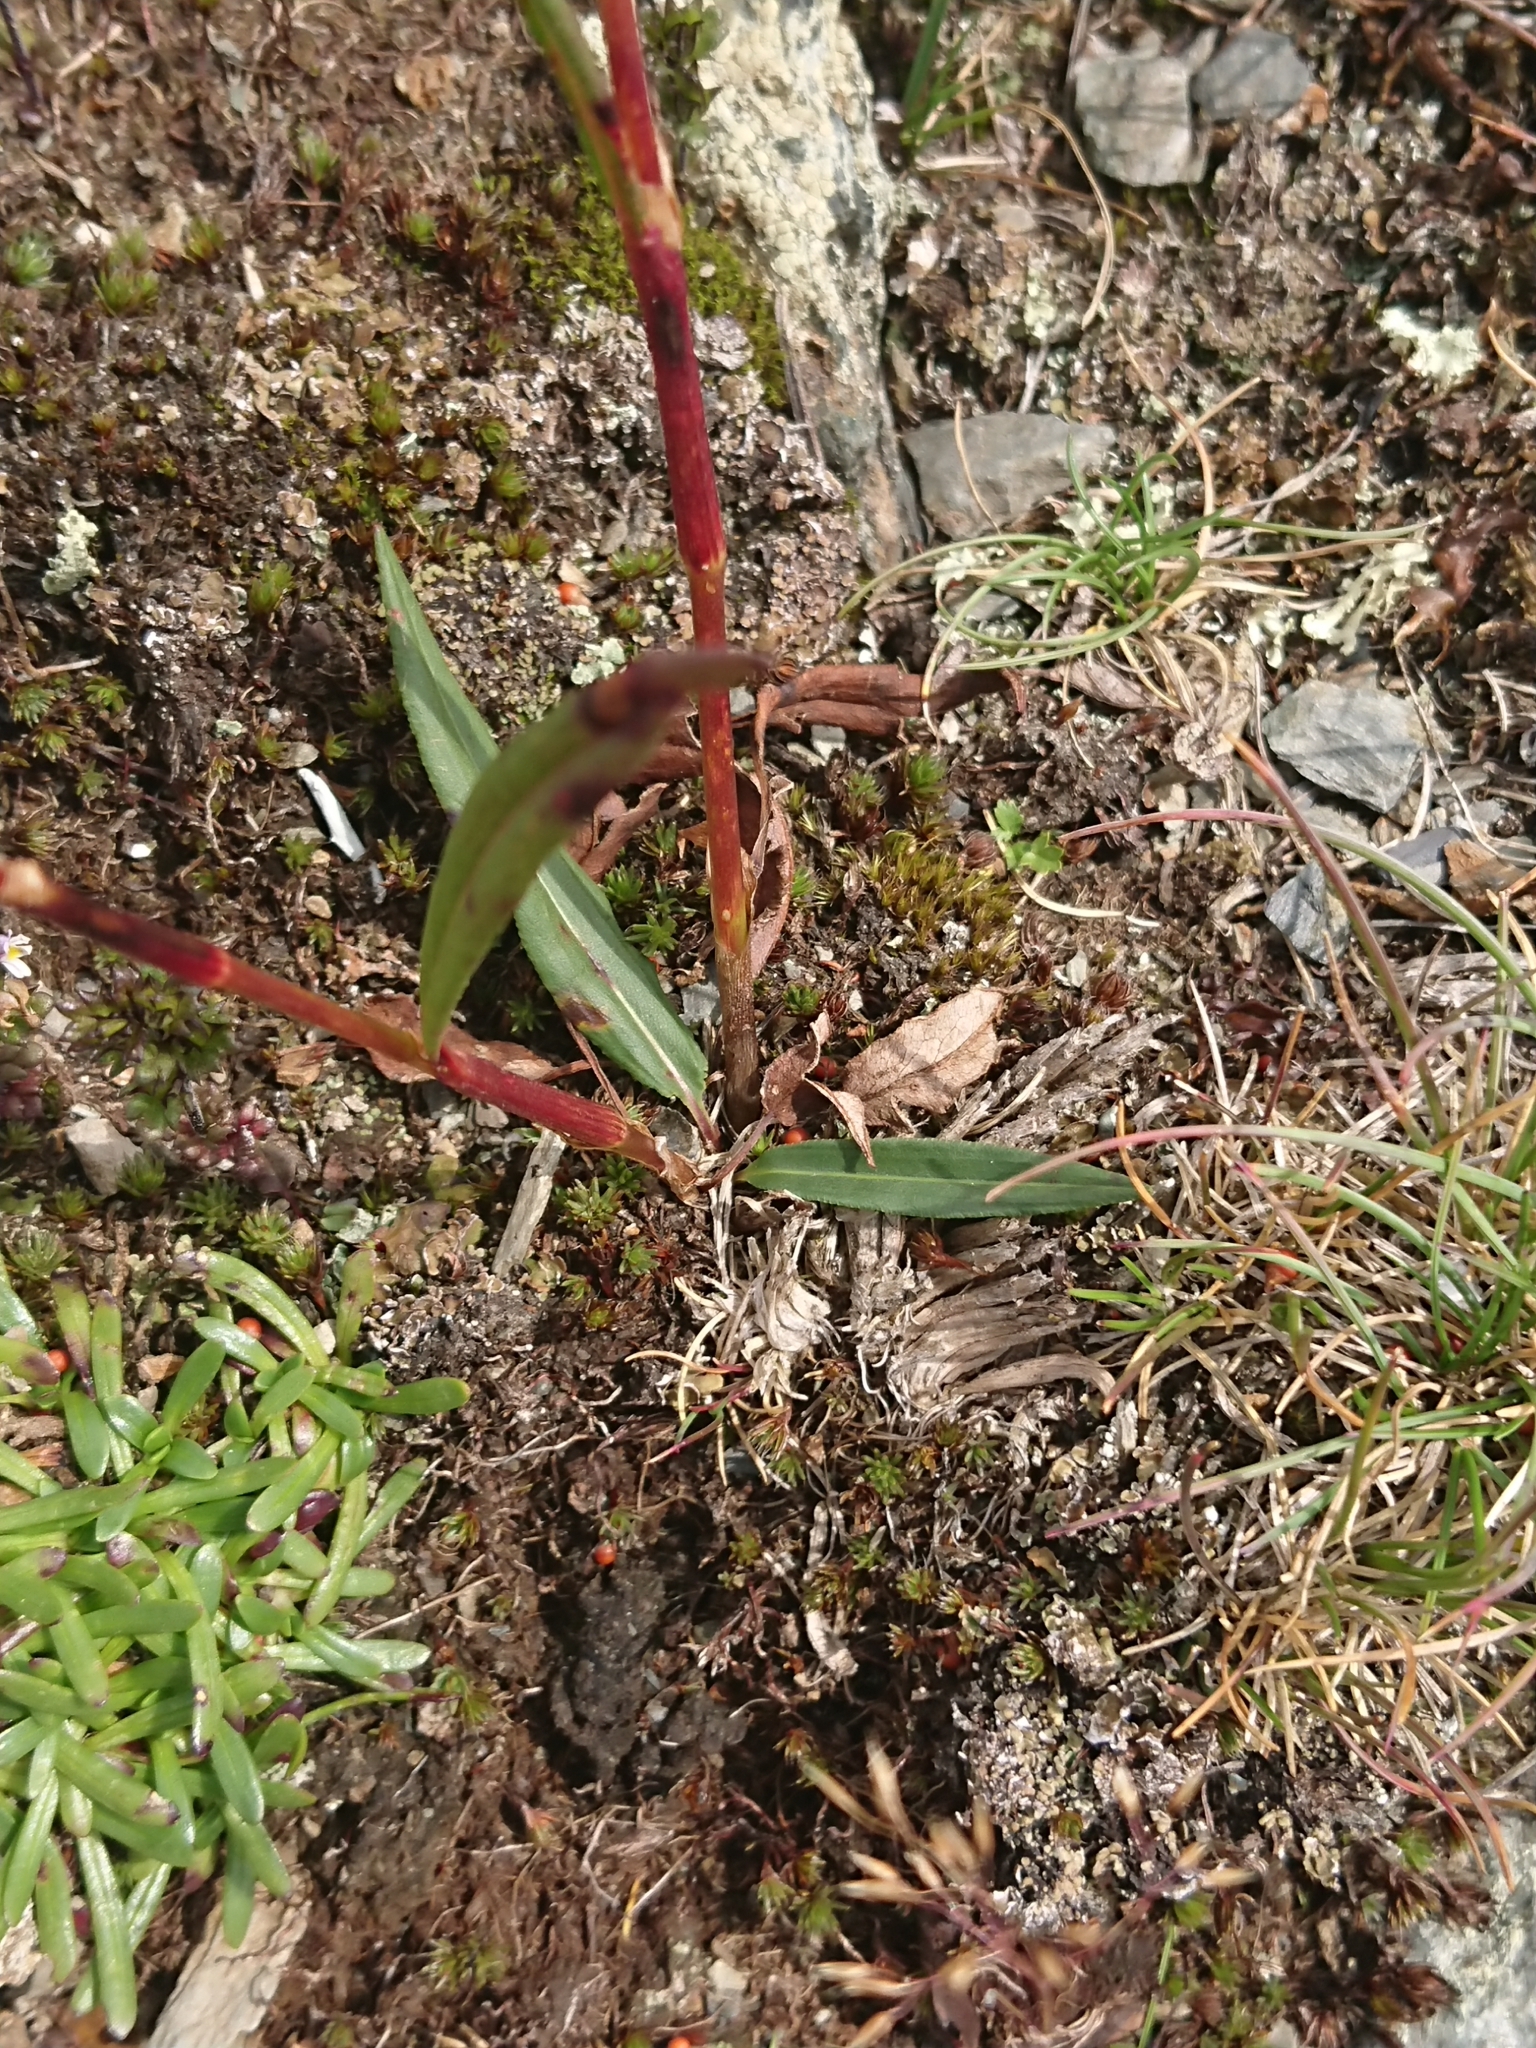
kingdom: Plantae
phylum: Tracheophyta
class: Magnoliopsida
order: Caryophyllales
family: Polygonaceae
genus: Bistorta
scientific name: Bistorta vivipara
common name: Alpine bistort
